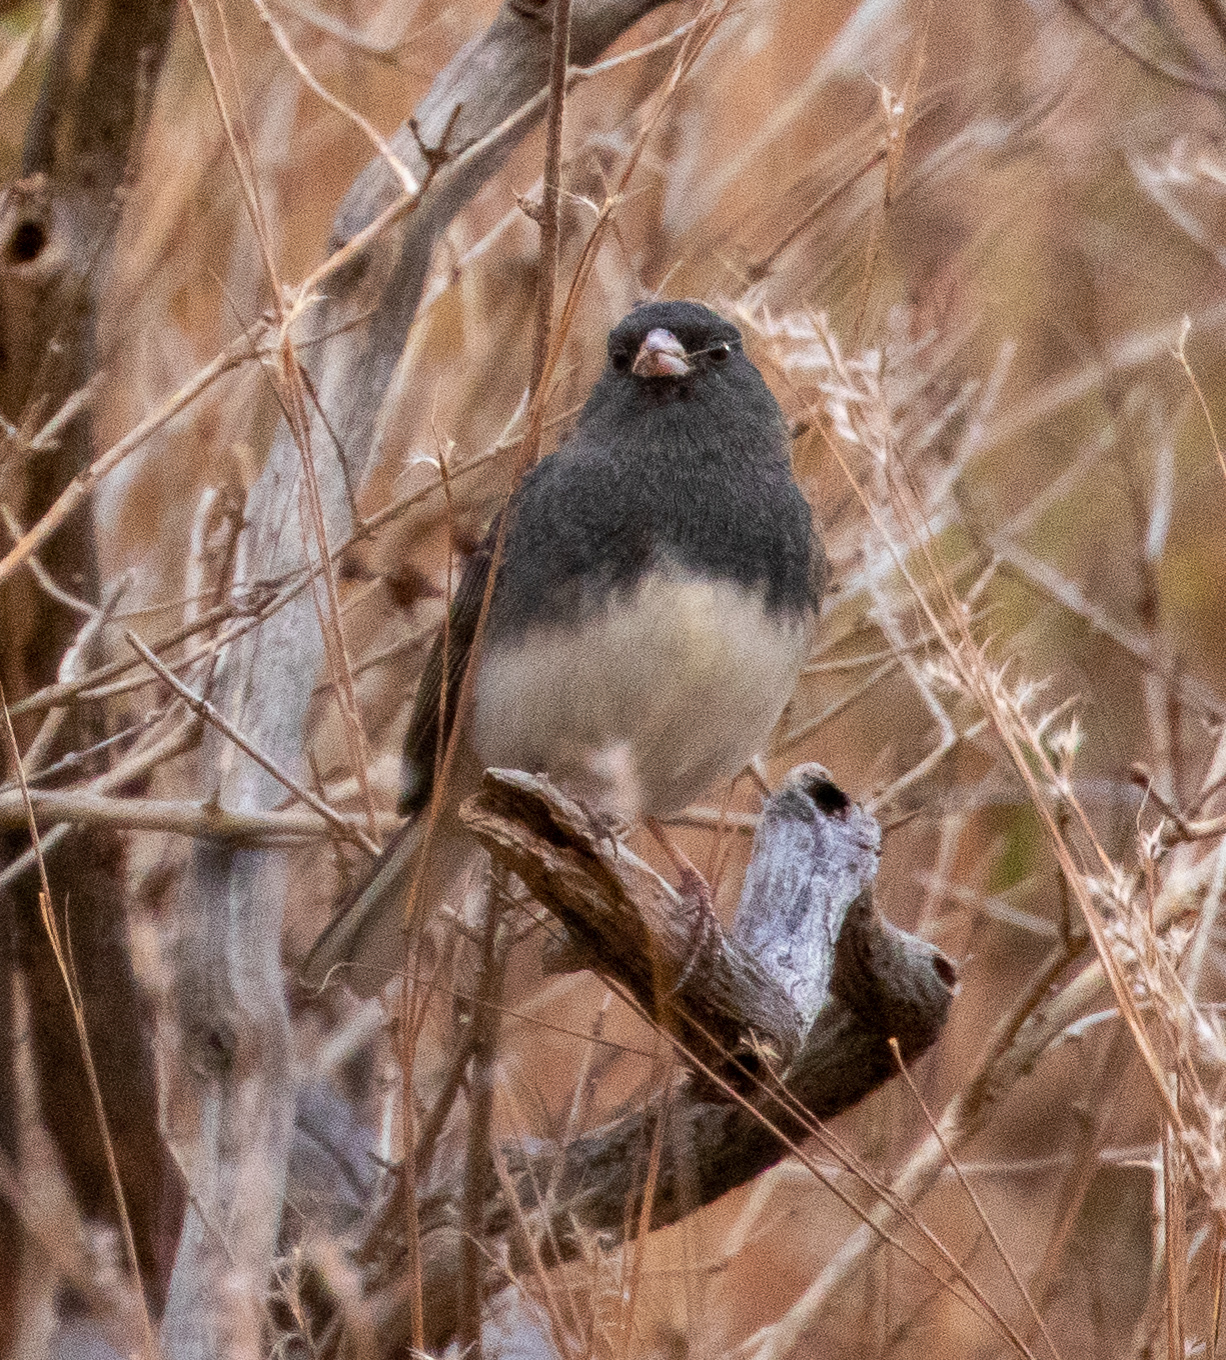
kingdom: Animalia
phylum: Chordata
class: Aves
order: Passeriformes
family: Passerellidae
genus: Junco
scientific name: Junco hyemalis
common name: Dark-eyed junco
